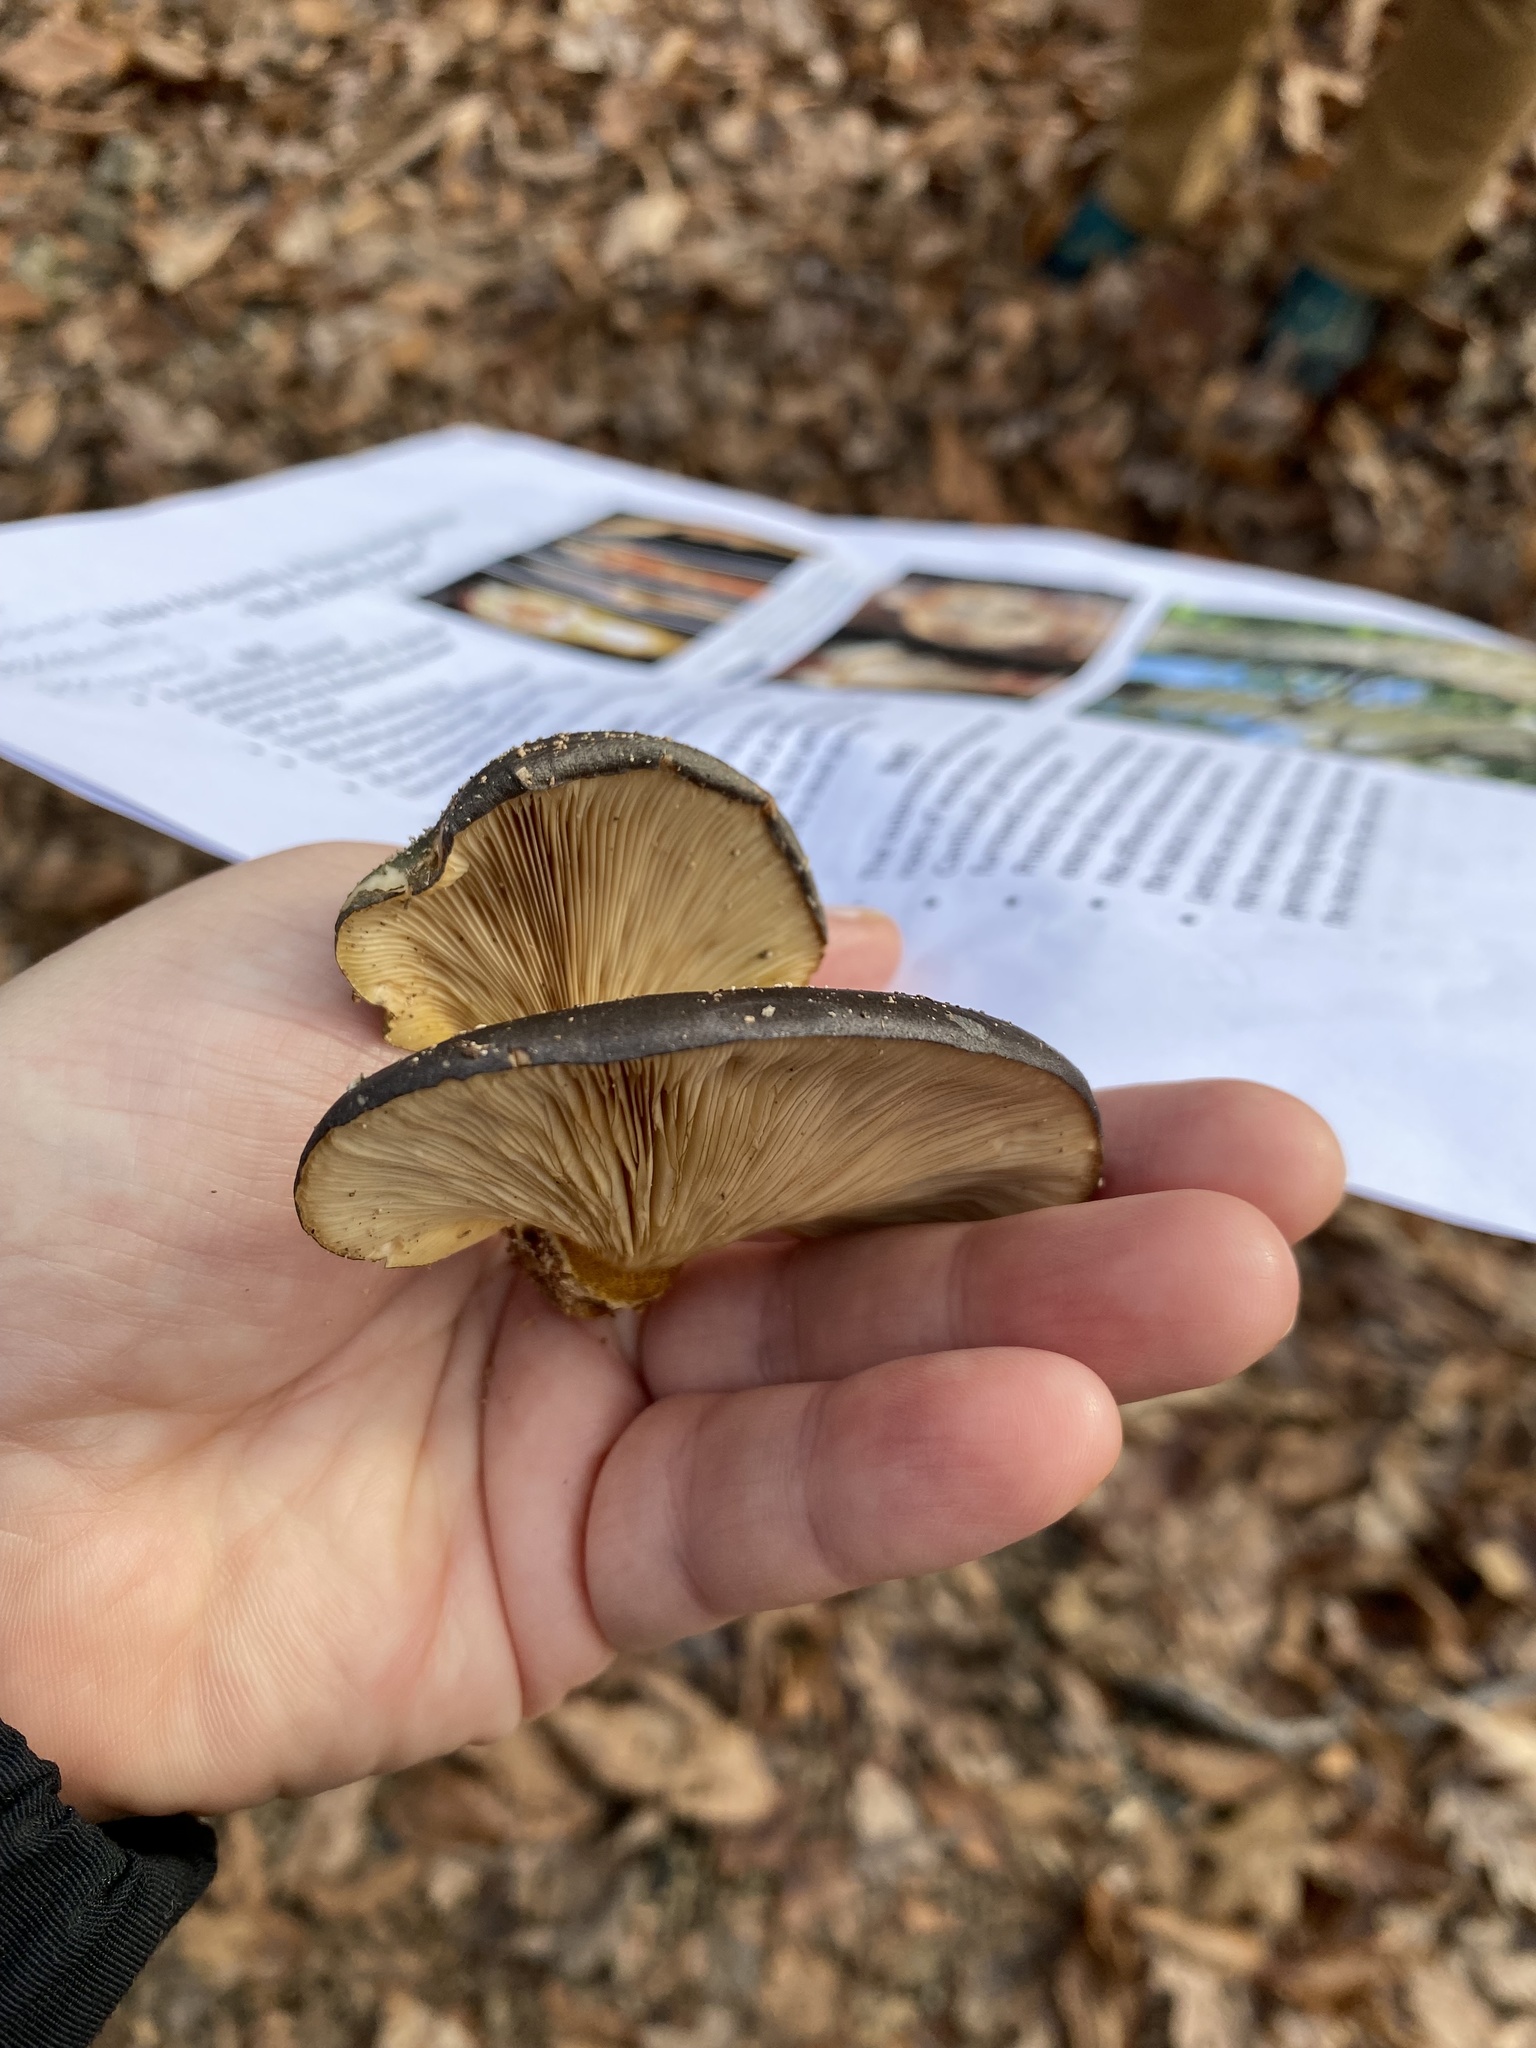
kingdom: Fungi
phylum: Basidiomycota
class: Agaricomycetes
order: Agaricales
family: Sarcomyxaceae
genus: Sarcomyxa
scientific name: Sarcomyxa serotina
